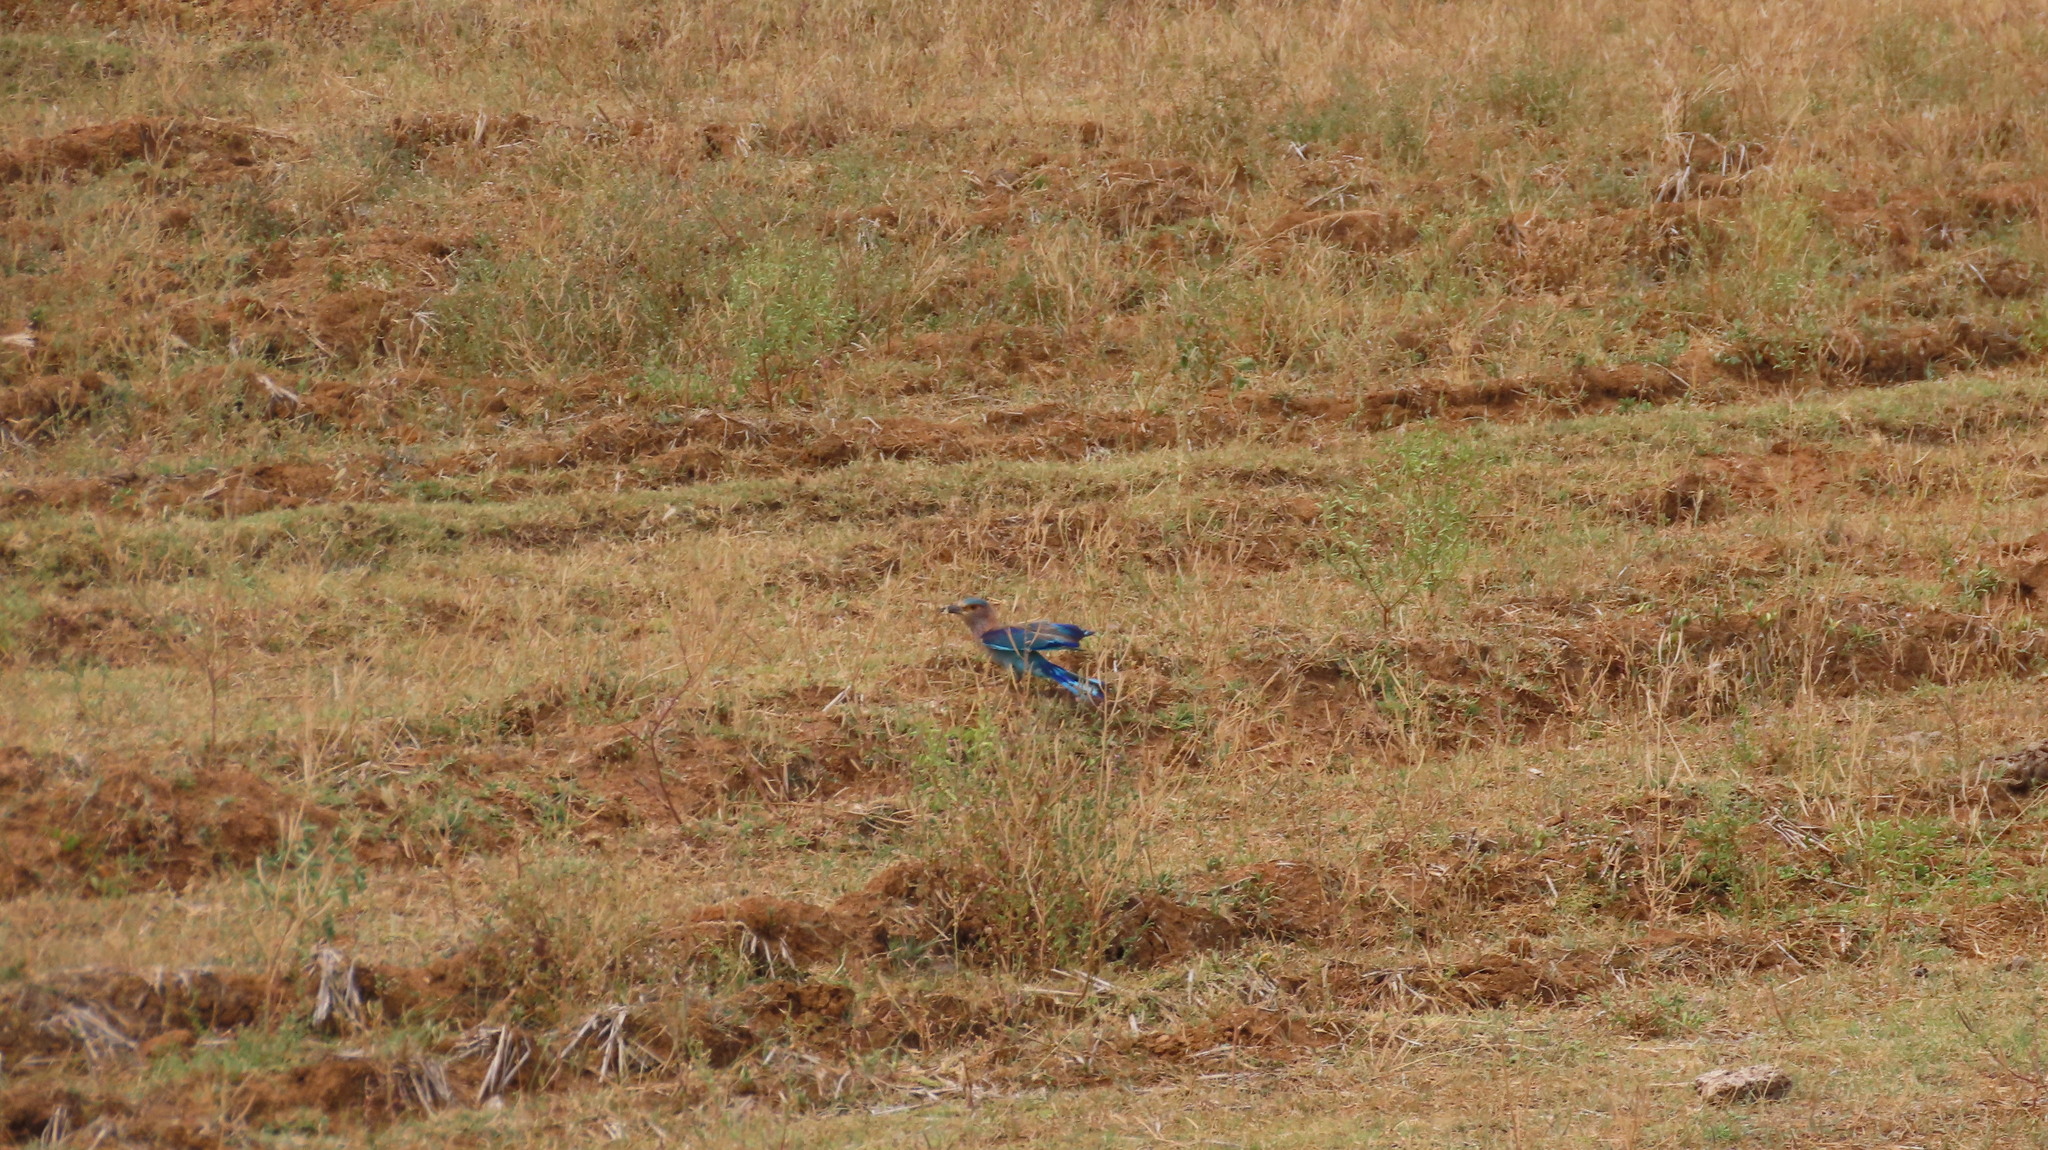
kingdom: Animalia
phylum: Chordata
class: Aves
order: Coraciiformes
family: Coraciidae
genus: Coracias
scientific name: Coracias benghalensis
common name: Indian roller
